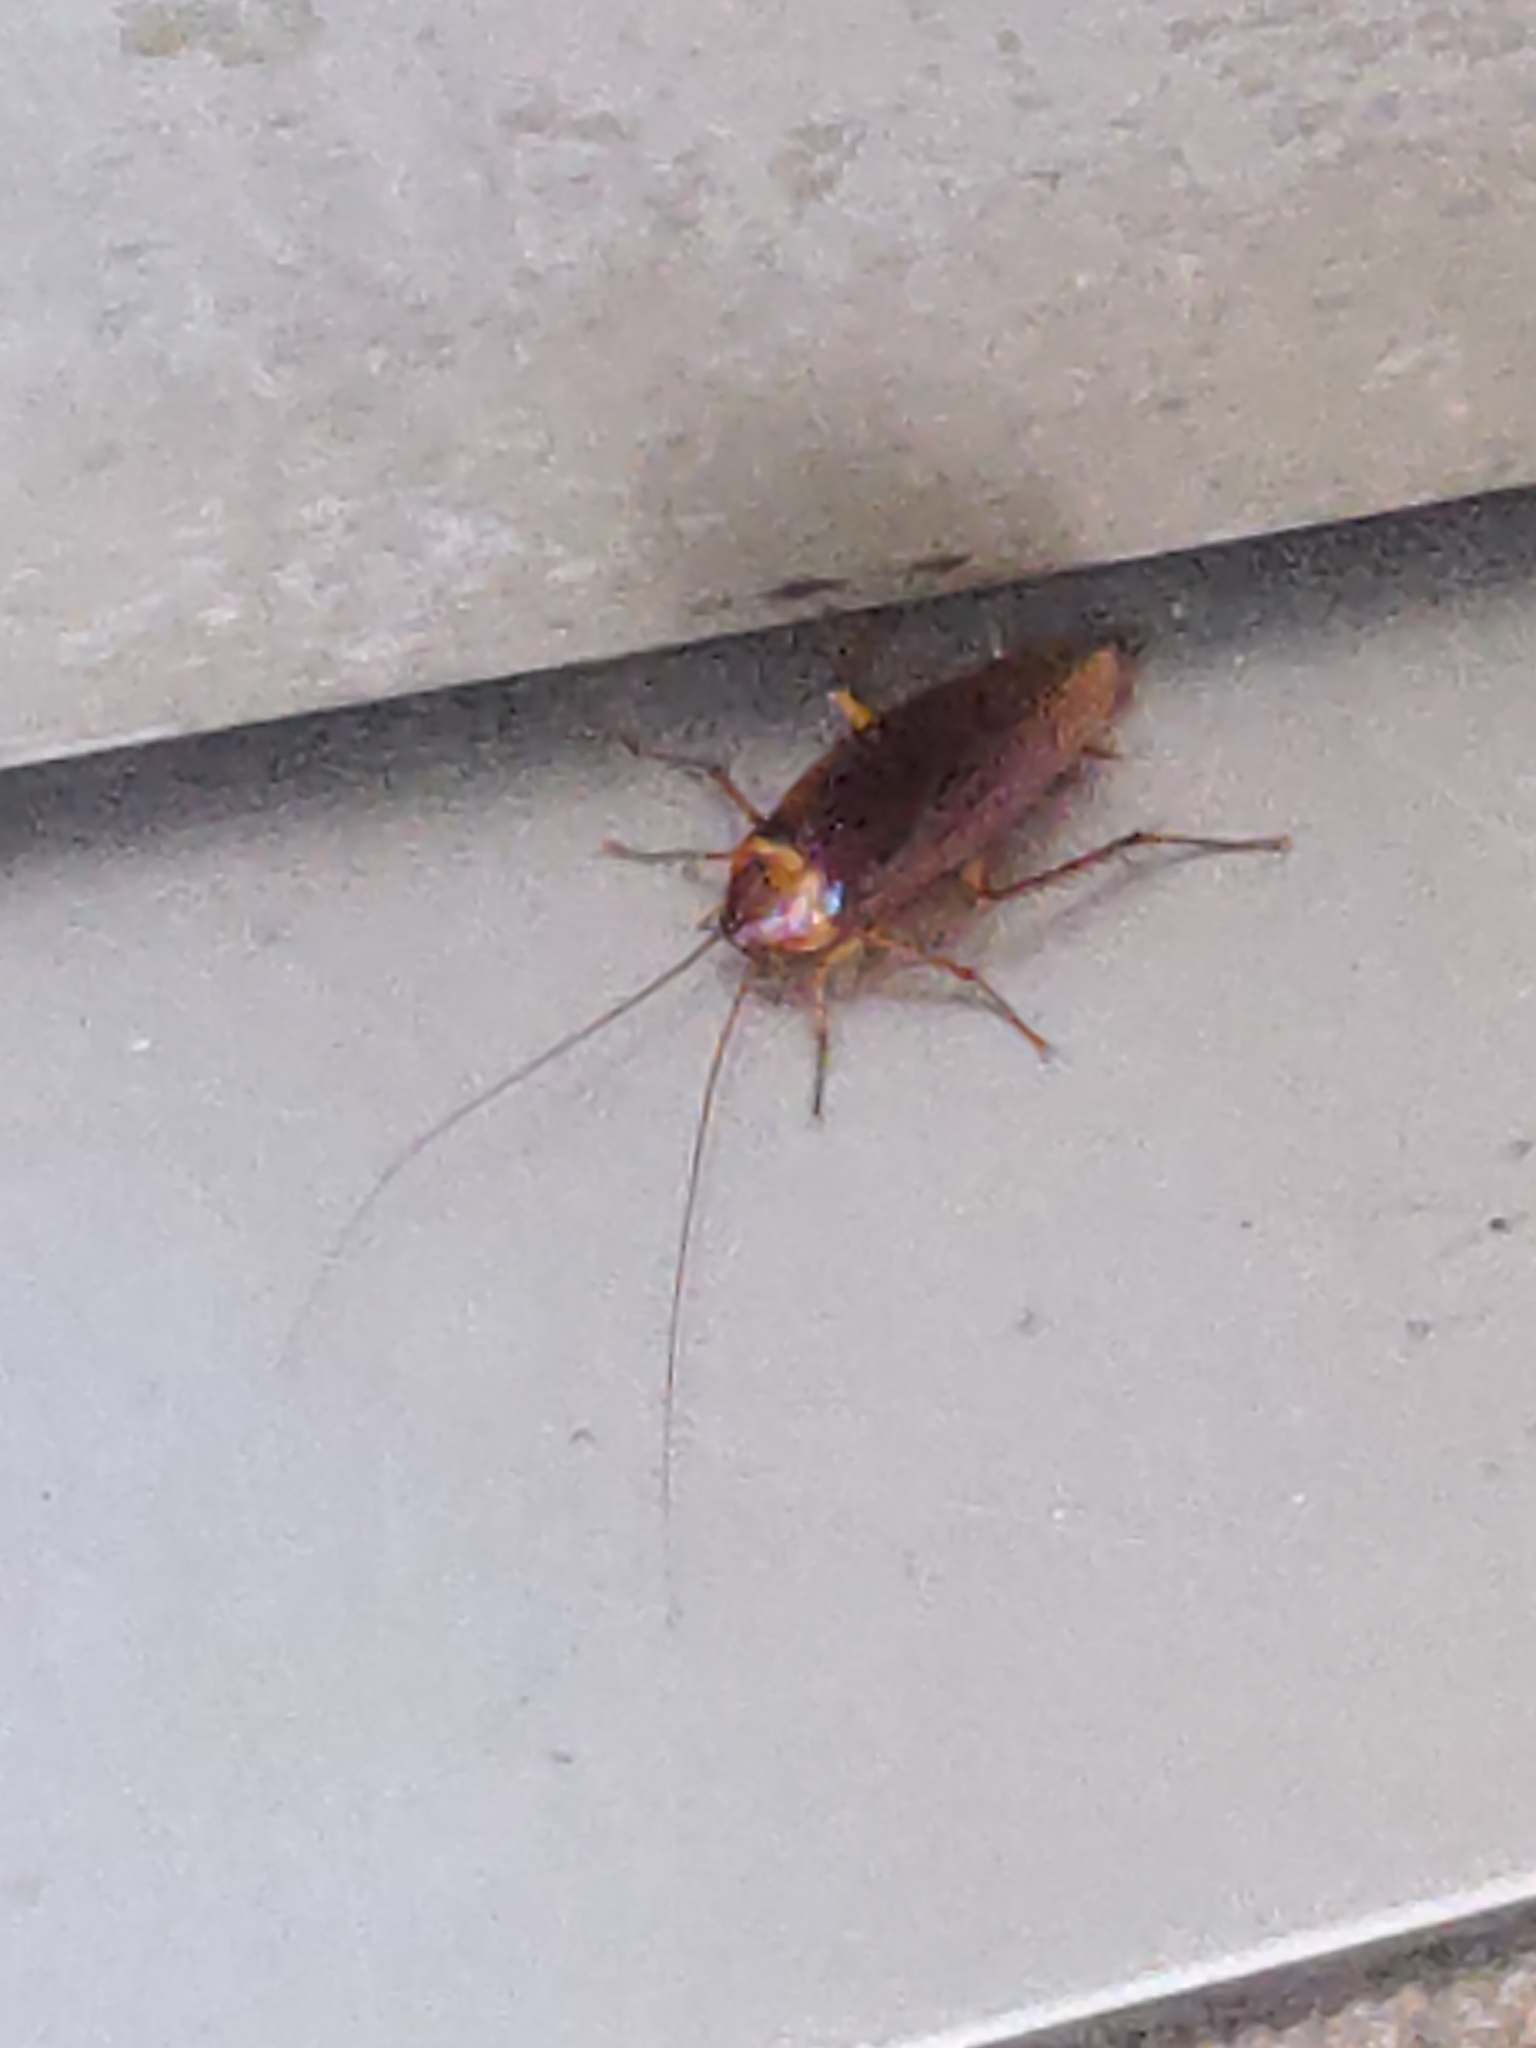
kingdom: Animalia
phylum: Arthropoda
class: Insecta
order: Blattodea
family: Blattidae
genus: Periplaneta
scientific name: Periplaneta americana
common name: American cockroach
